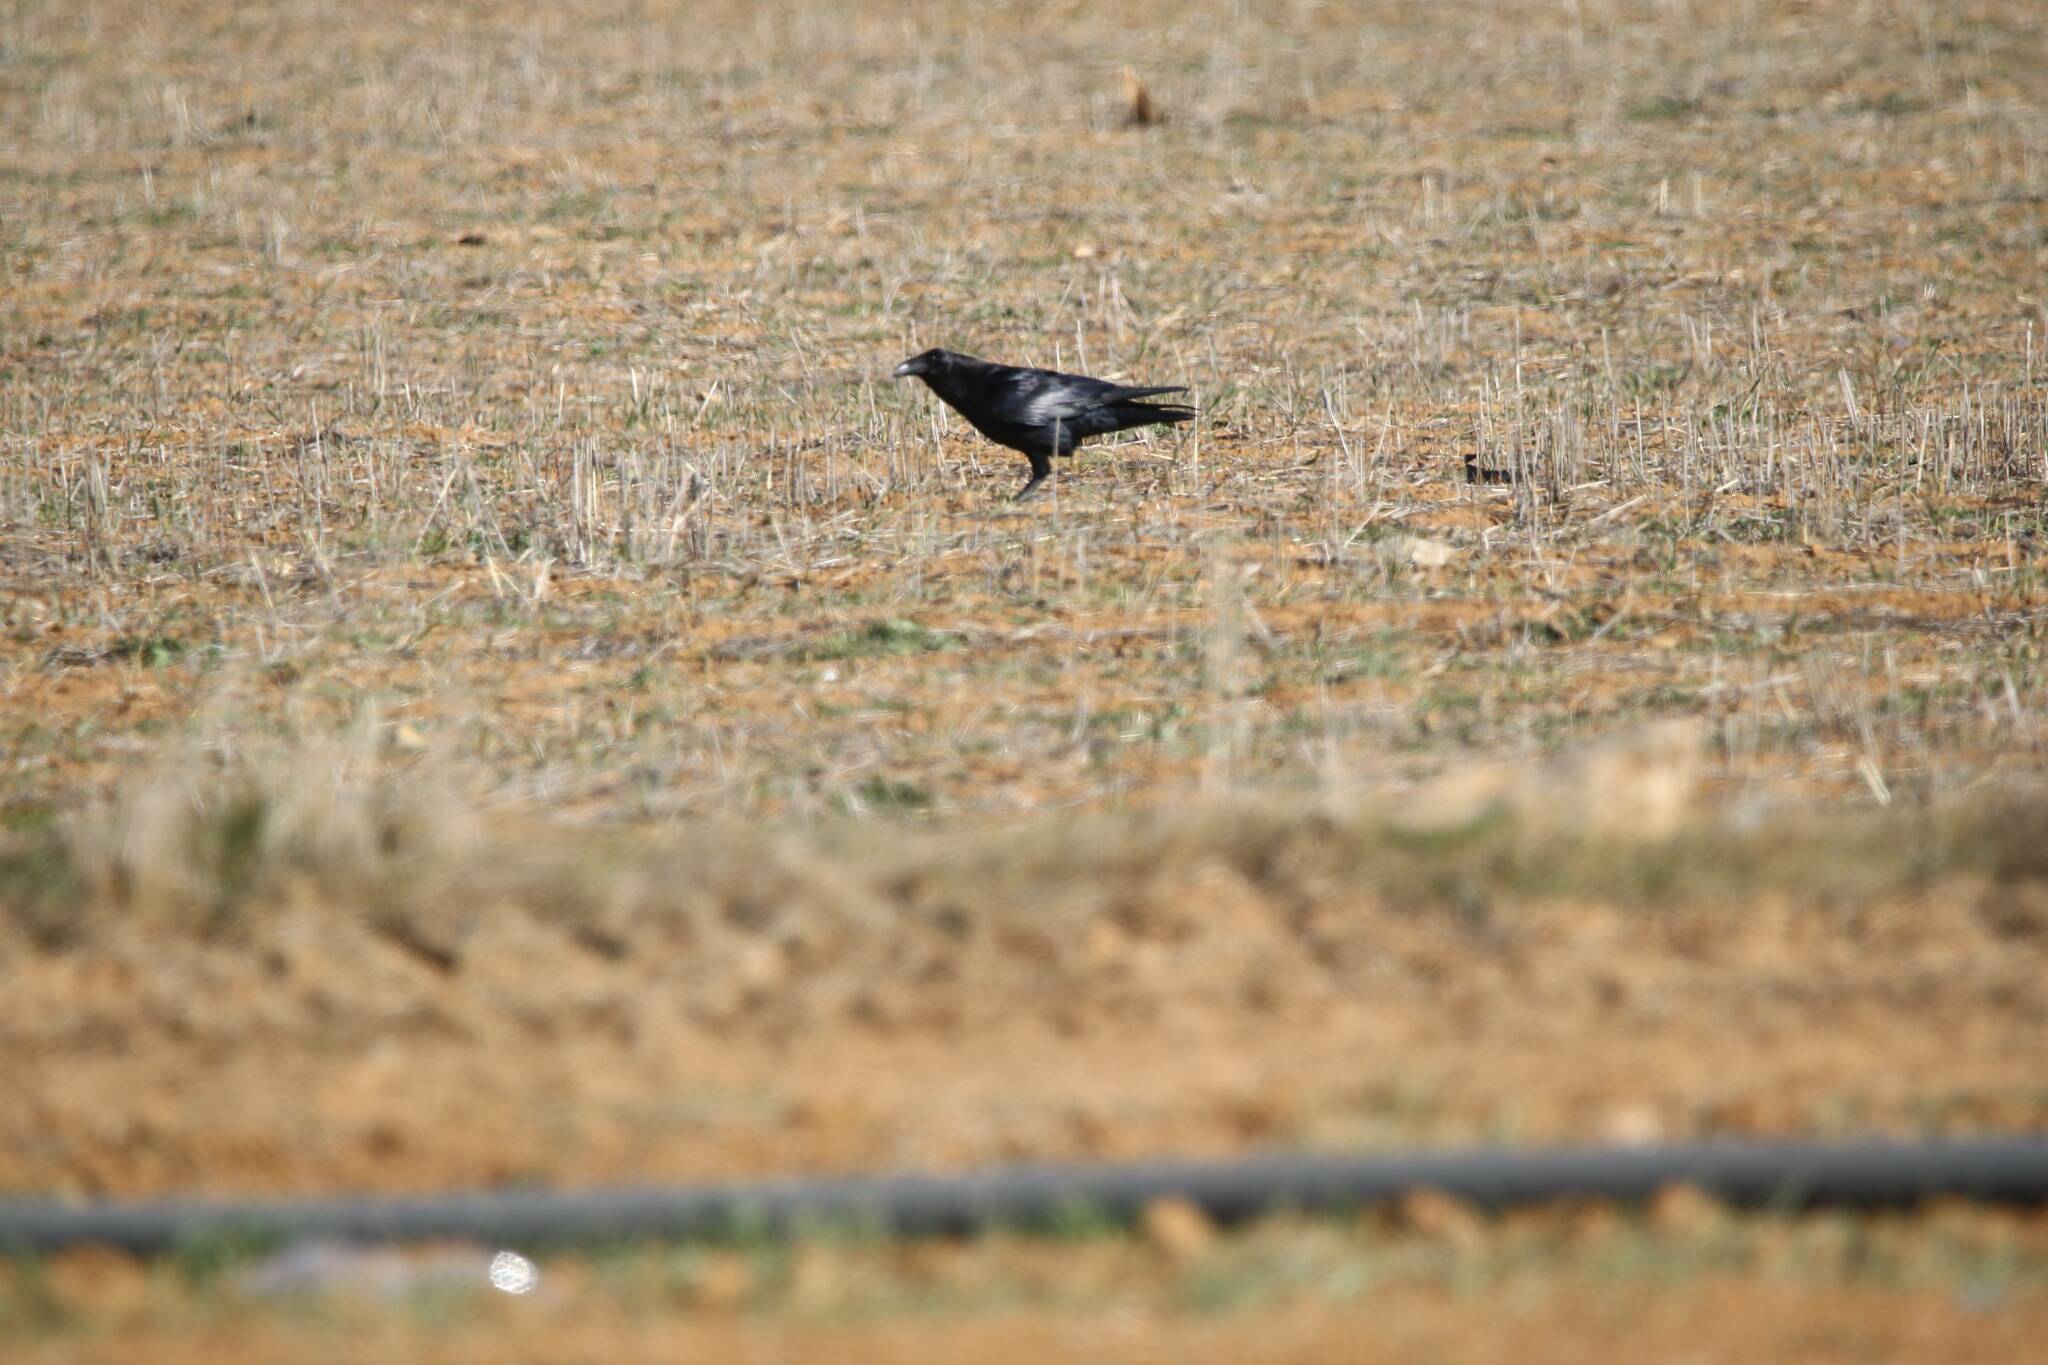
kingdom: Animalia
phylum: Chordata
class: Aves
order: Passeriformes
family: Corvidae
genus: Corvus
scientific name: Corvus corax
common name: Common raven
